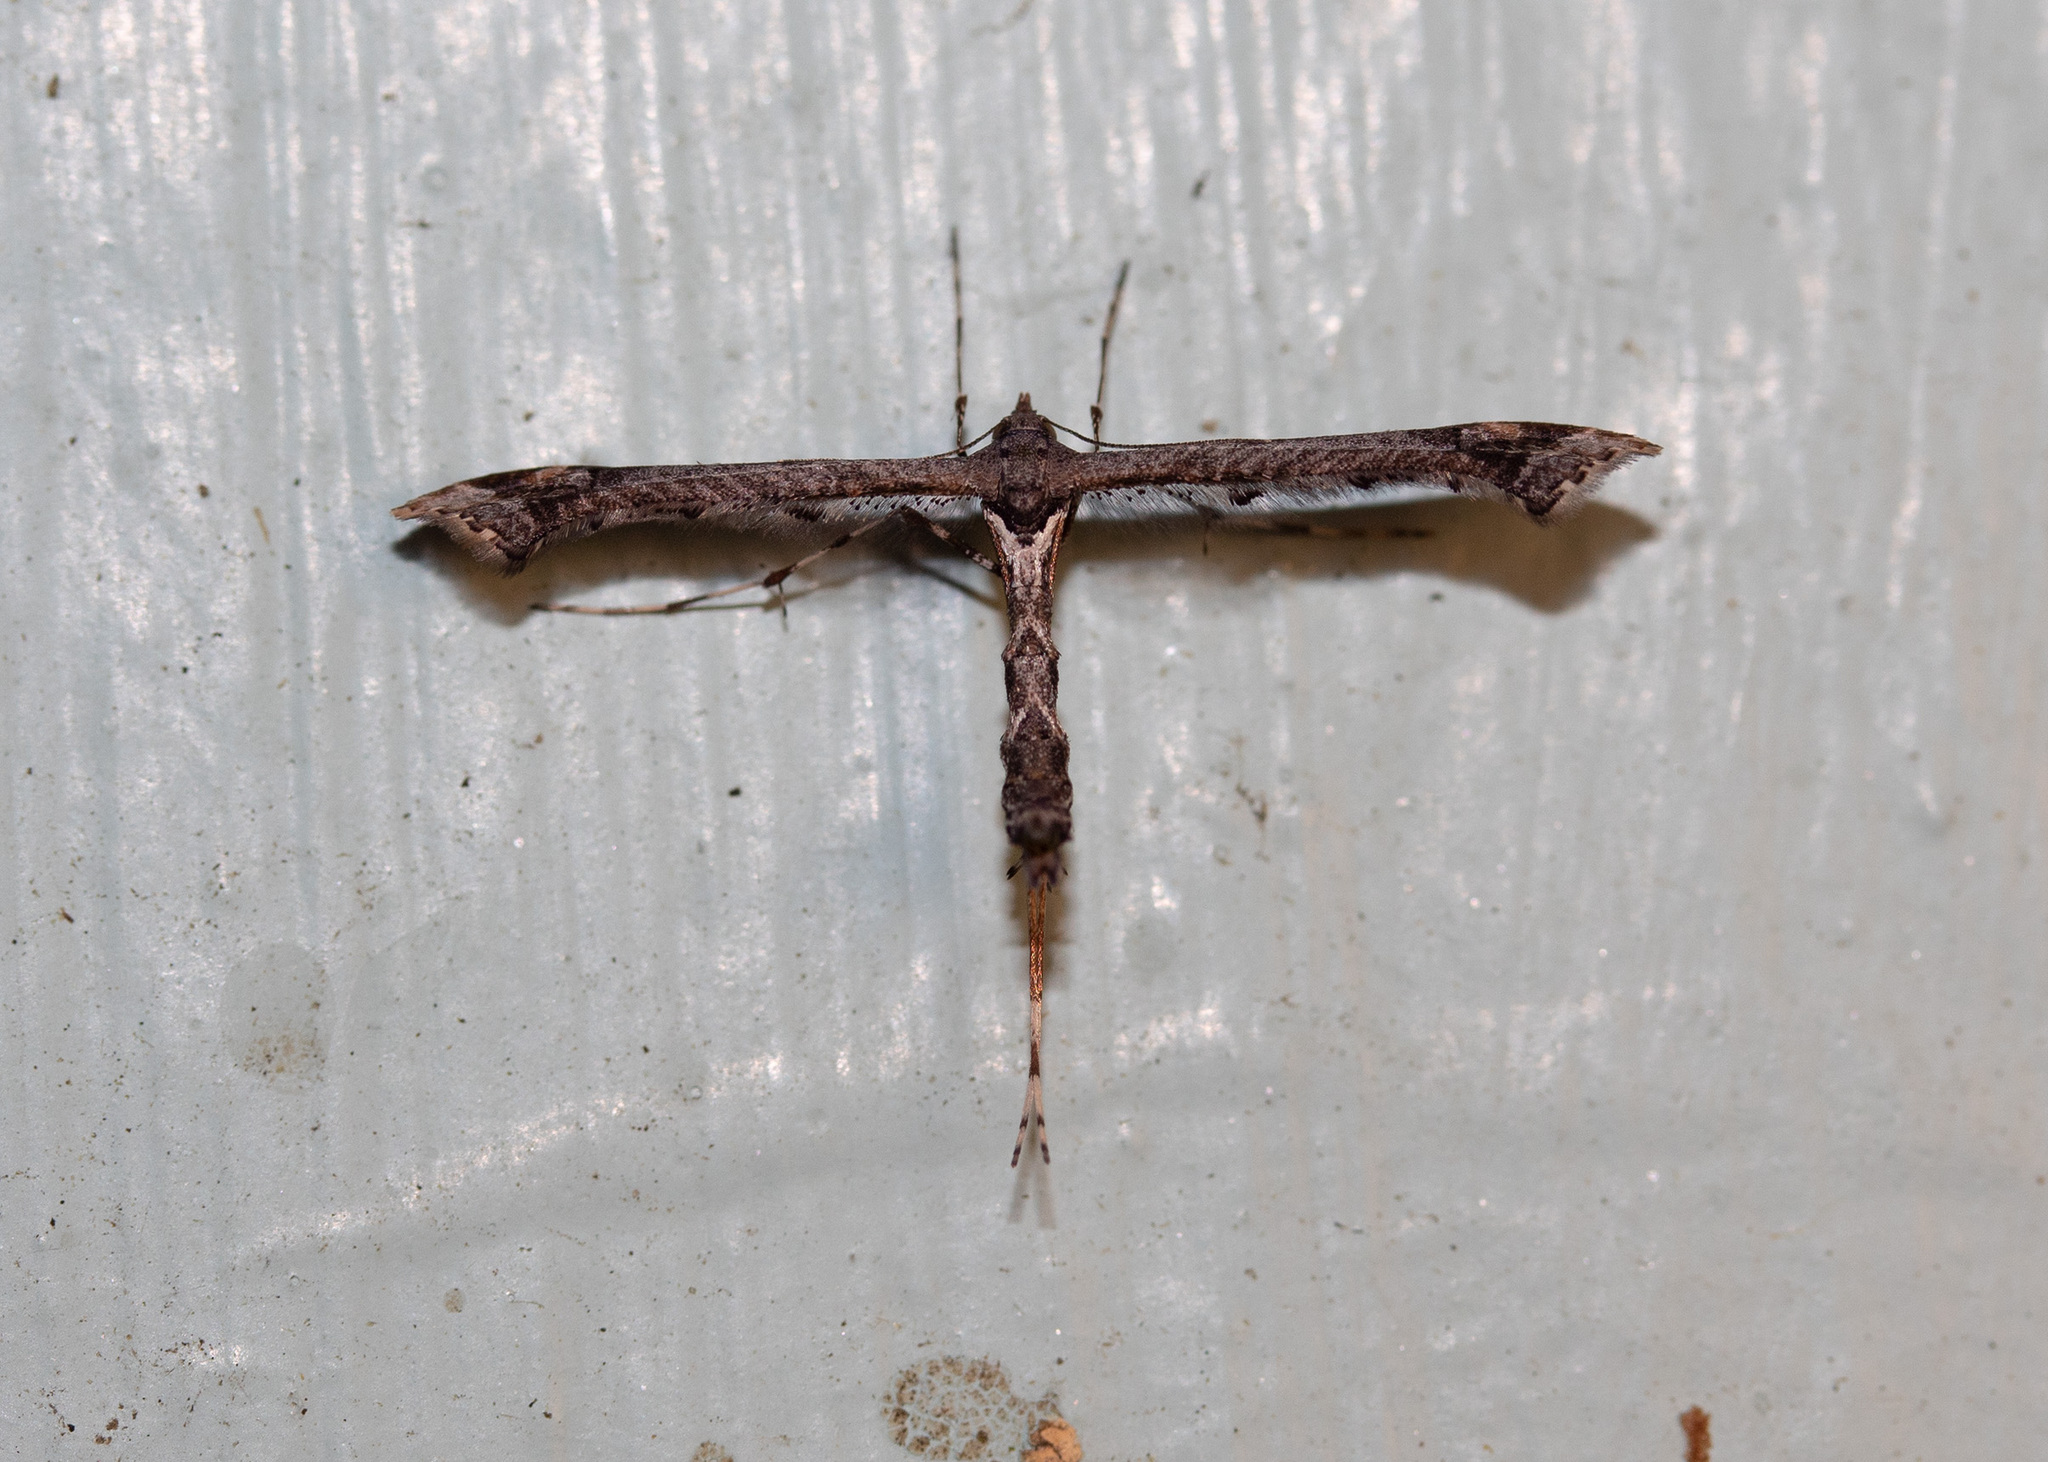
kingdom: Animalia
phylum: Arthropoda
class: Insecta
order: Lepidoptera
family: Pterophoridae
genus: Anstenoptilia
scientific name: Anstenoptilia marmarodactyla
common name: Moth
